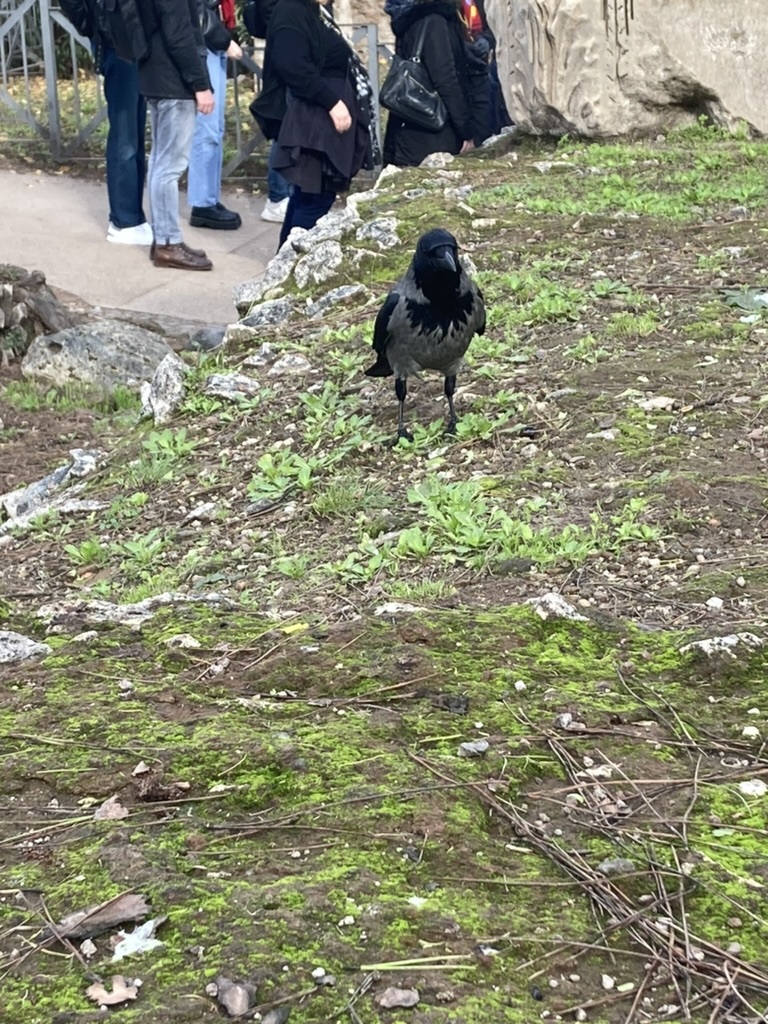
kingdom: Animalia
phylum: Chordata
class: Aves
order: Passeriformes
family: Corvidae
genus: Corvus
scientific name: Corvus cornix
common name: Hooded crow
